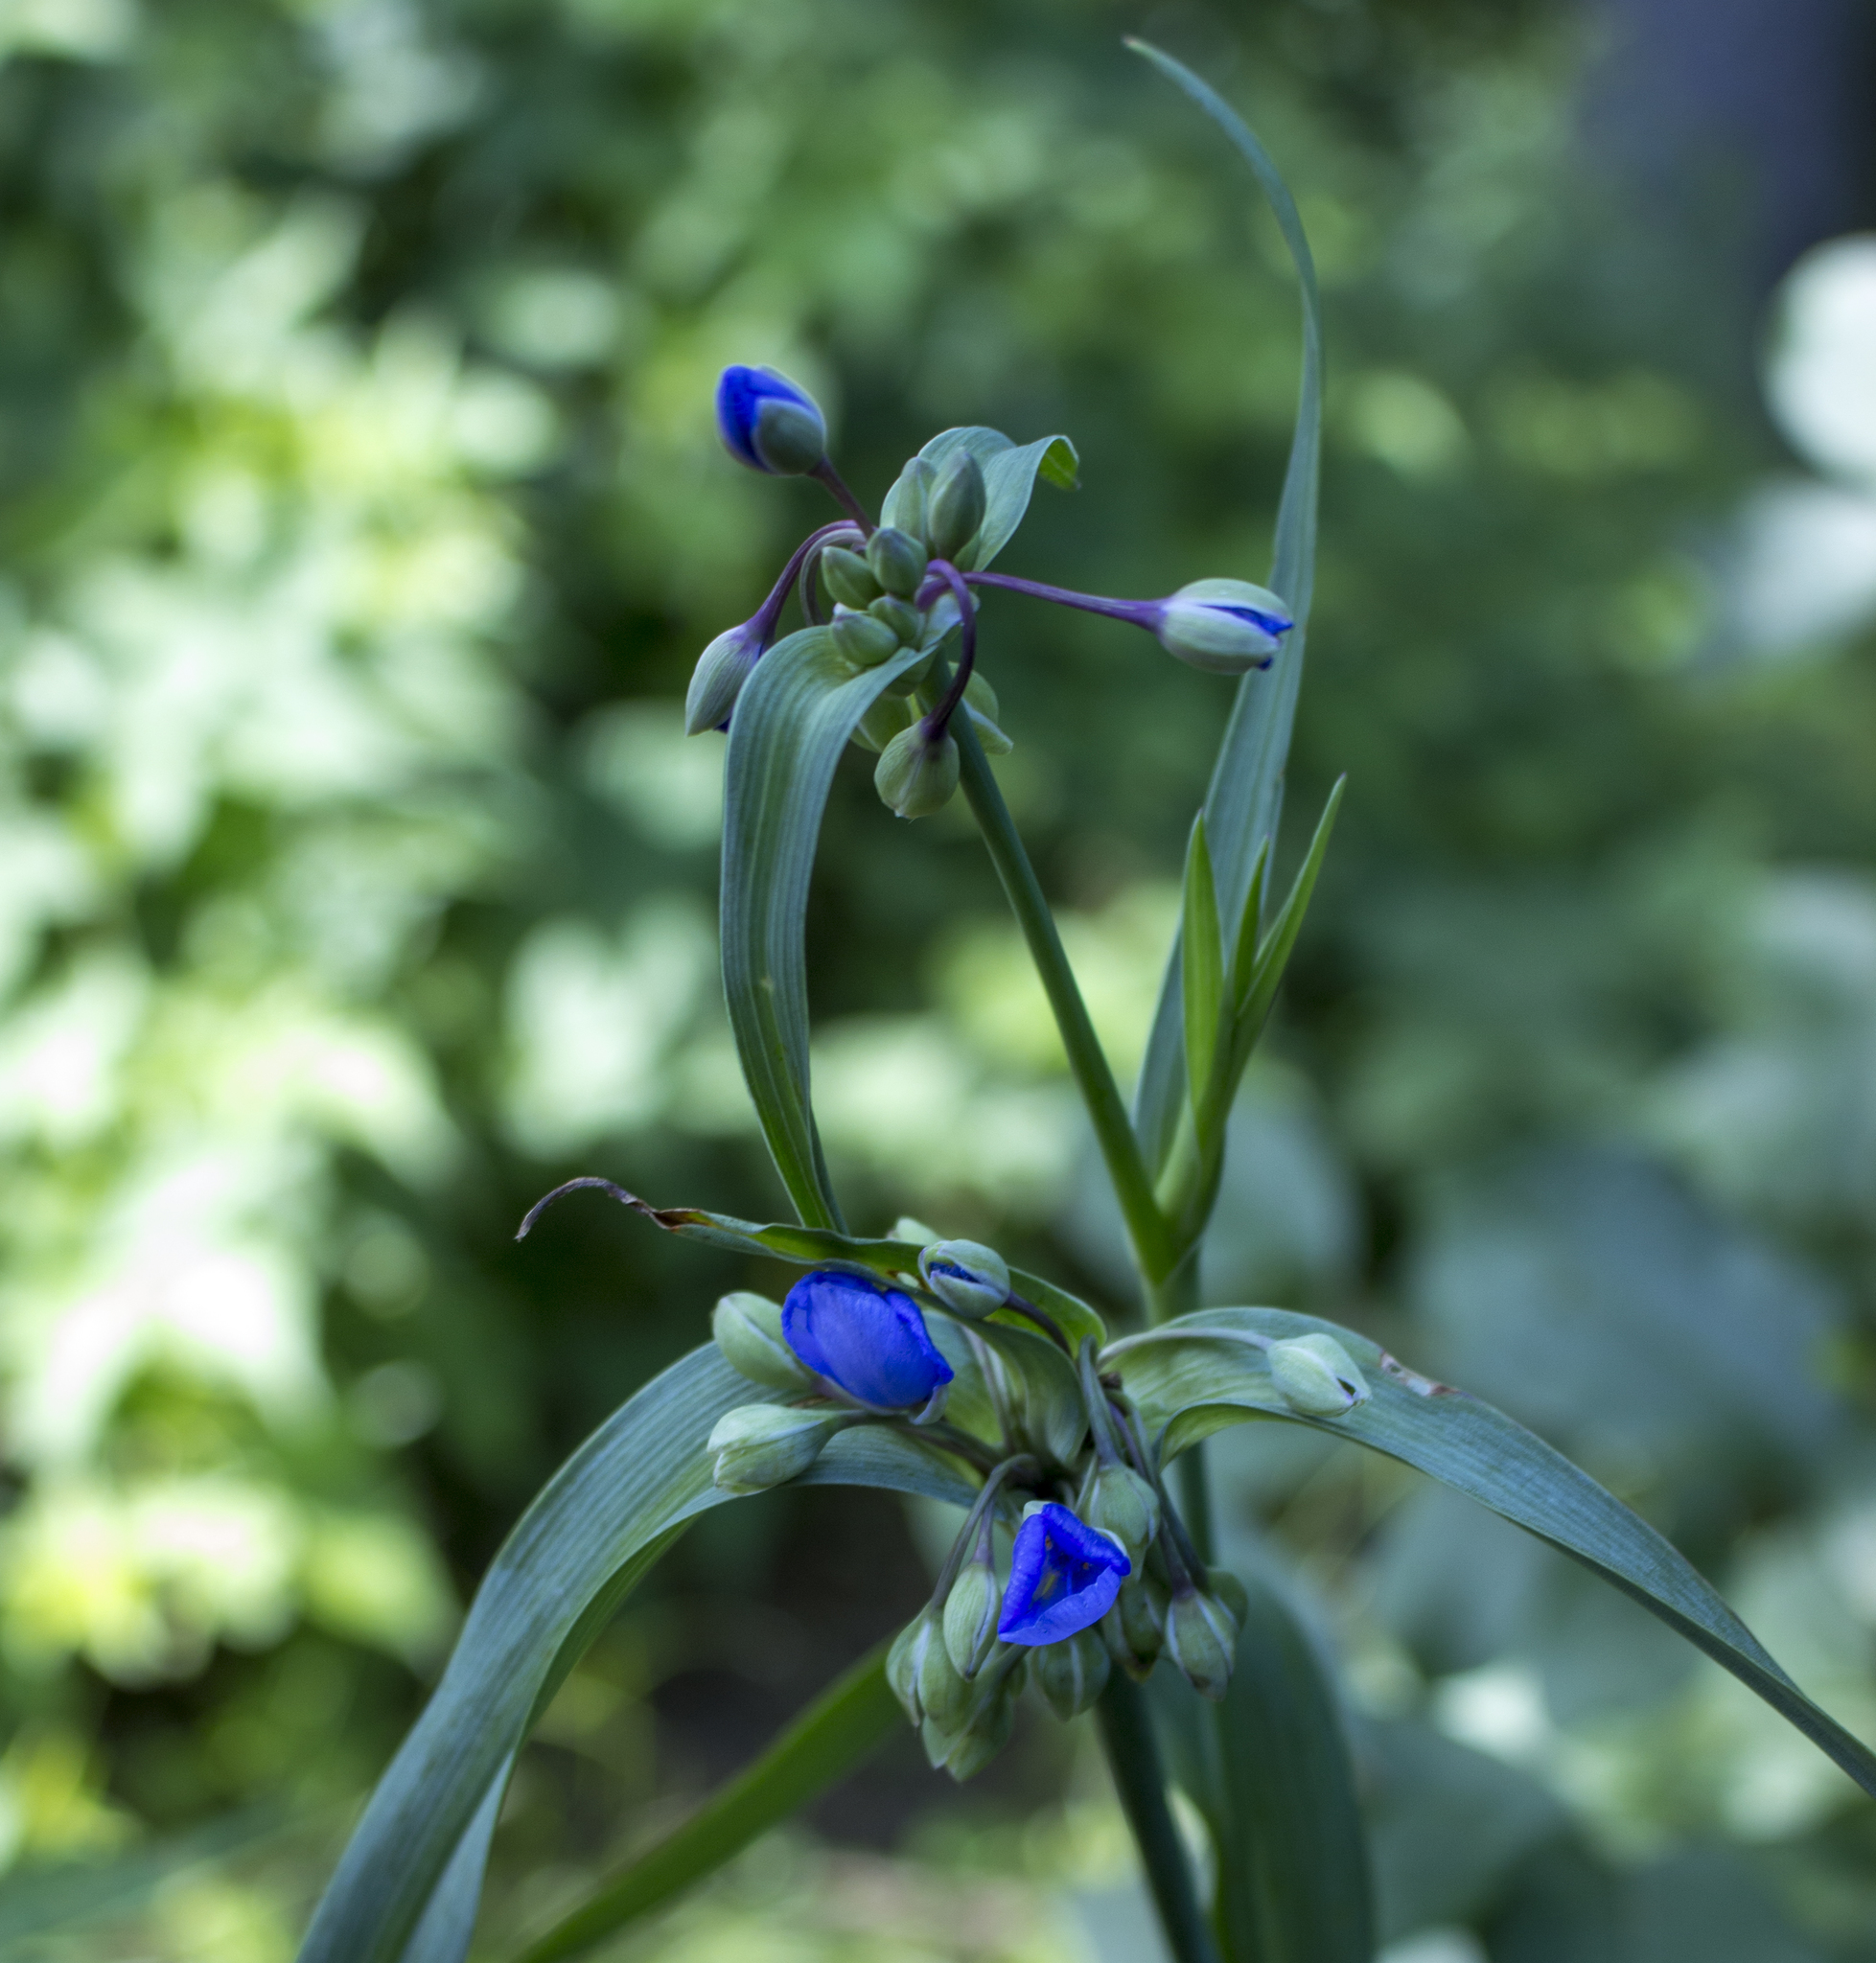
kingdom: Plantae
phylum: Tracheophyta
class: Liliopsida
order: Commelinales
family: Commelinaceae
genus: Tradescantia
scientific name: Tradescantia ohiensis
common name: Ohio spiderwort
